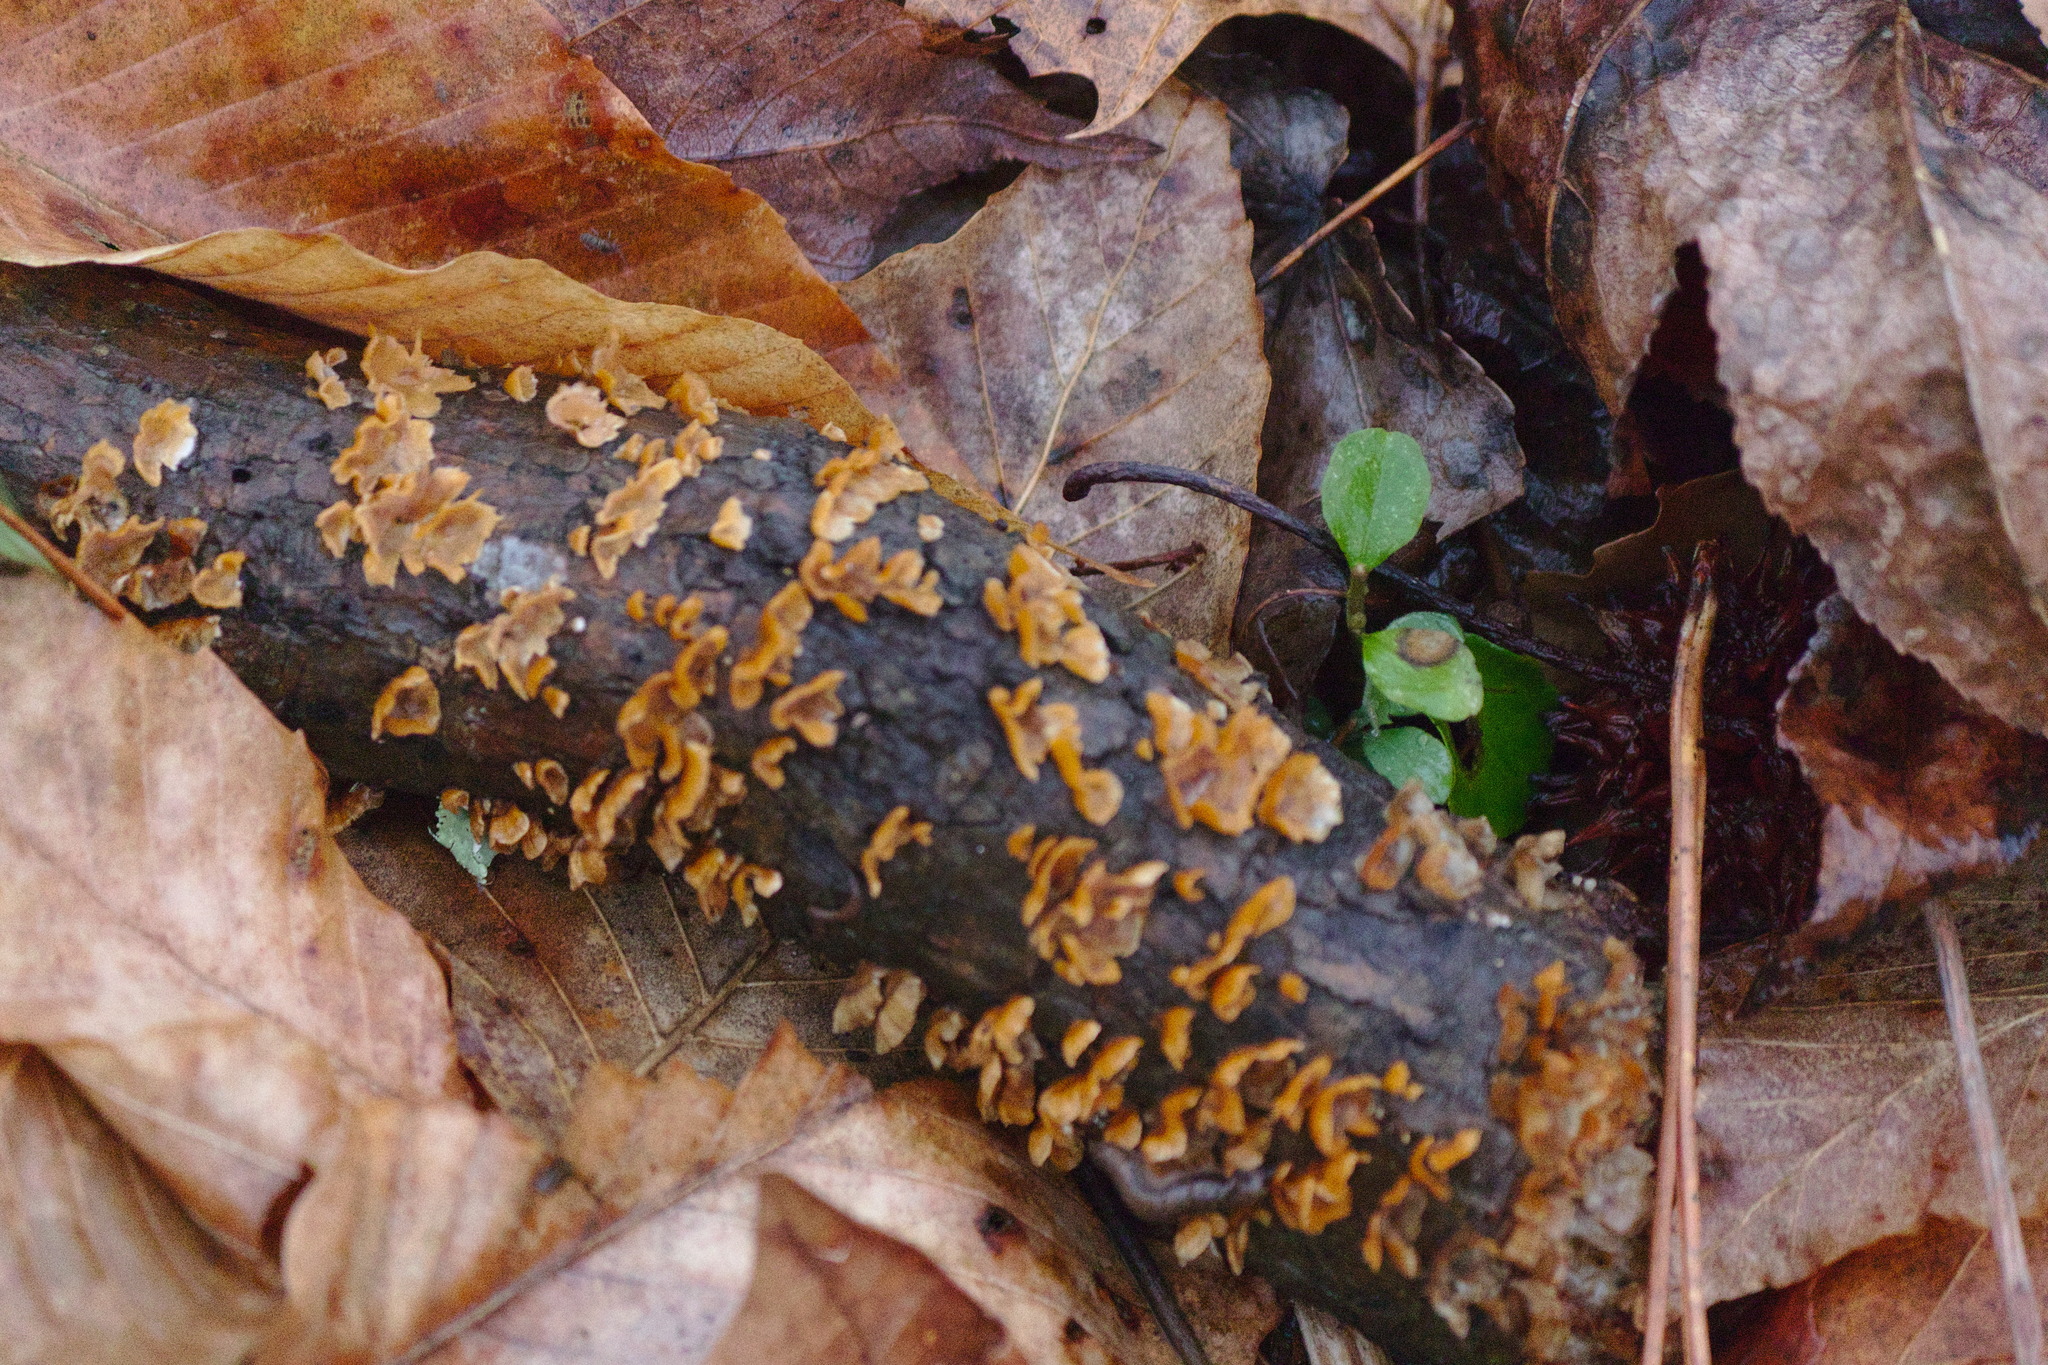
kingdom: Fungi
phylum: Basidiomycota
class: Agaricomycetes
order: Russulales
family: Stereaceae
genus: Stereum
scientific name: Stereum complicatum
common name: Crowded parchment
